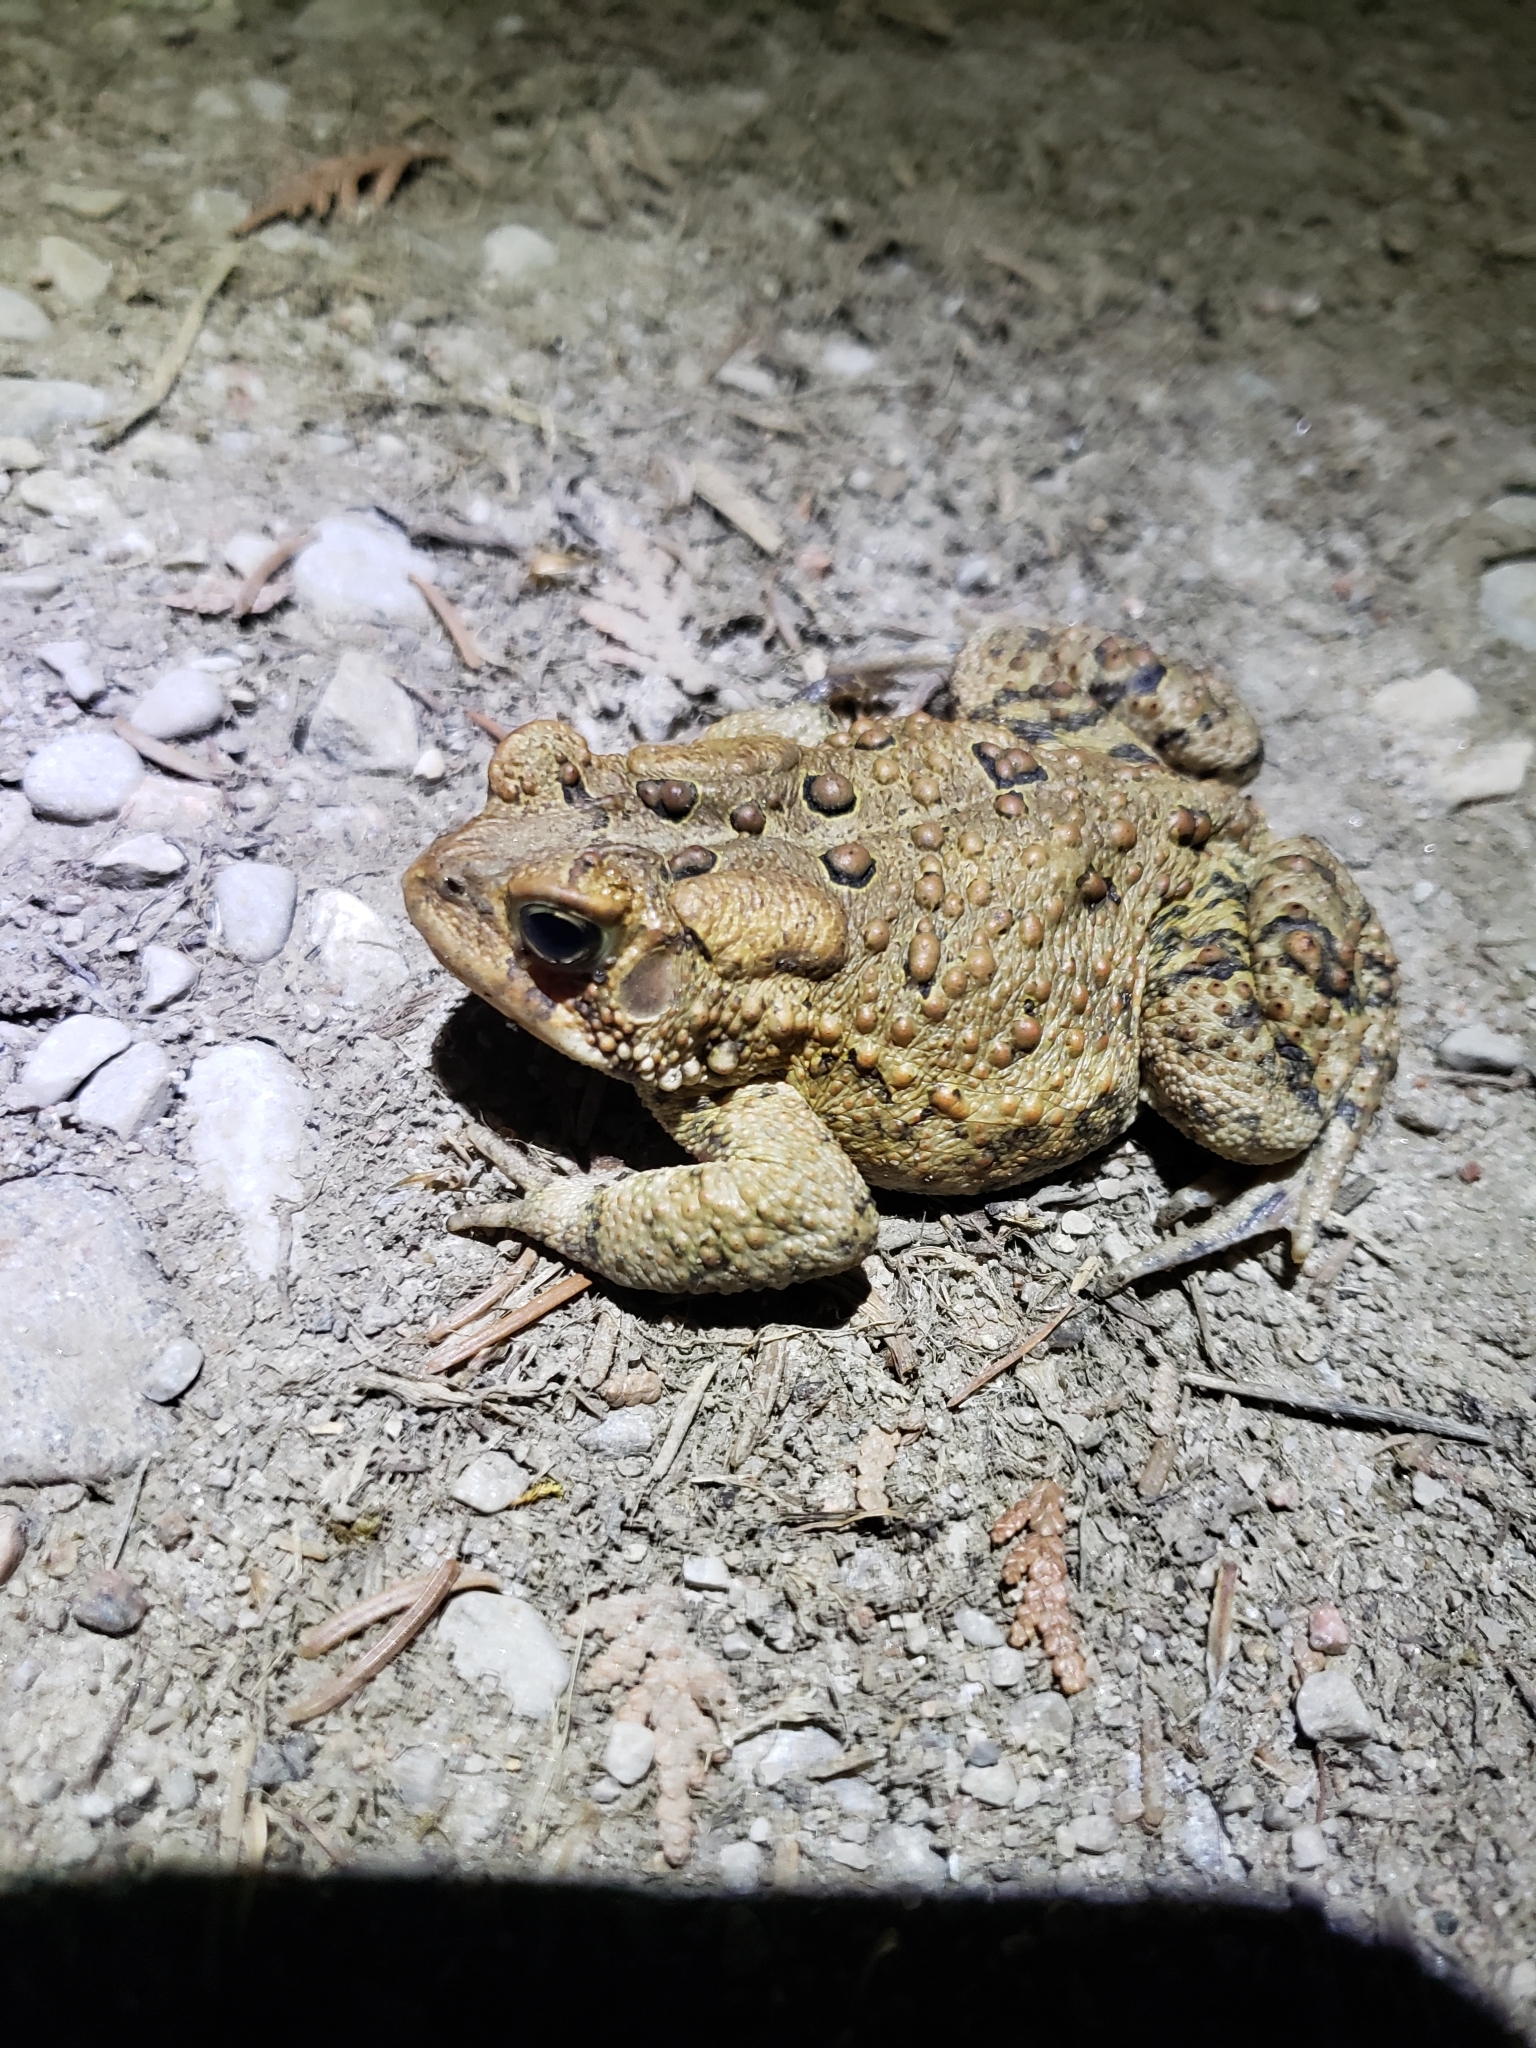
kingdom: Animalia
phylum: Chordata
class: Amphibia
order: Anura
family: Bufonidae
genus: Anaxyrus
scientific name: Anaxyrus americanus
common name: American toad
